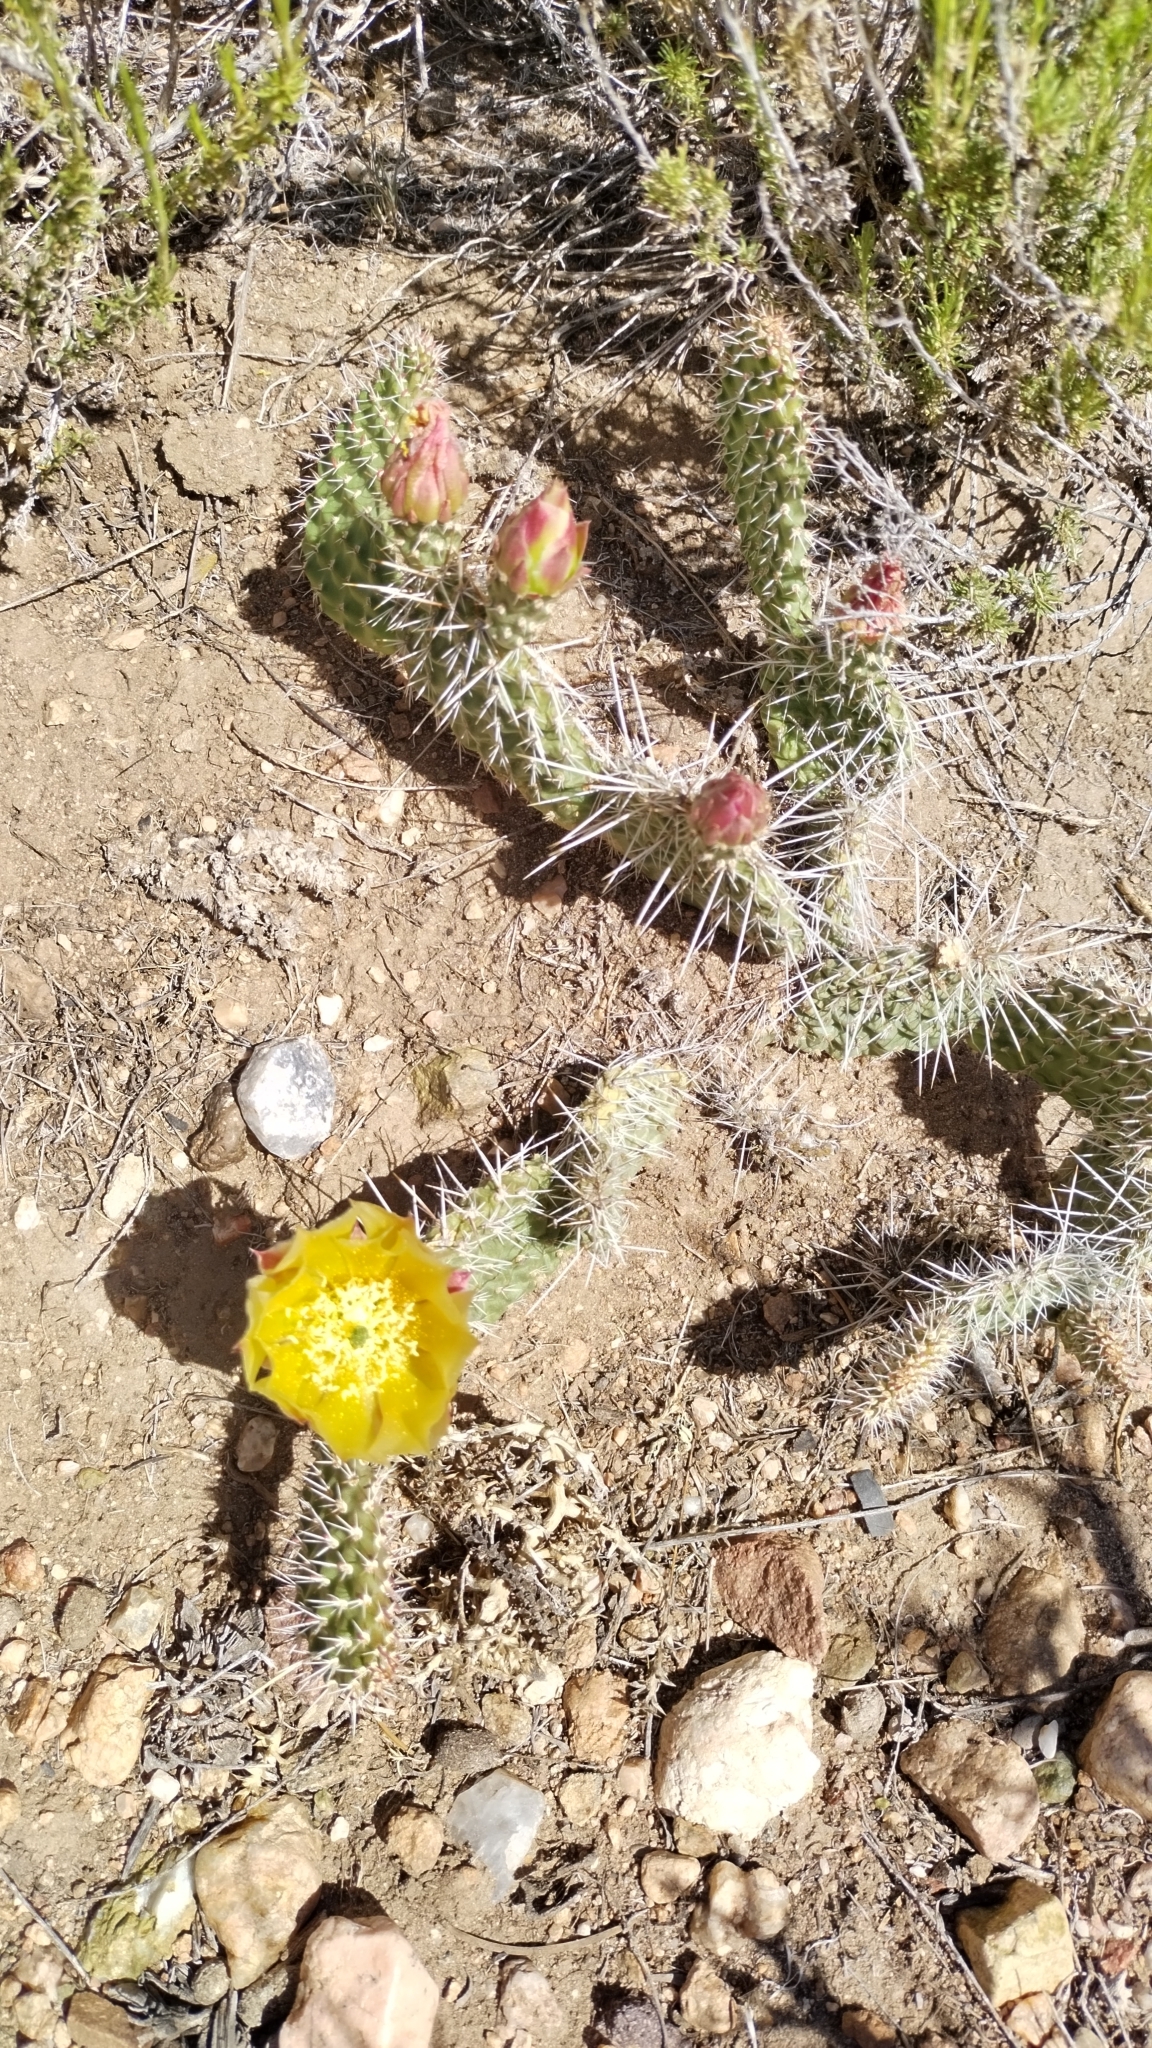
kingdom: Plantae
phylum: Tracheophyta
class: Magnoliopsida
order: Caryophyllales
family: Cactaceae
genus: Opuntia
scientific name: Opuntia polyacantha
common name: Plains prickly-pear
